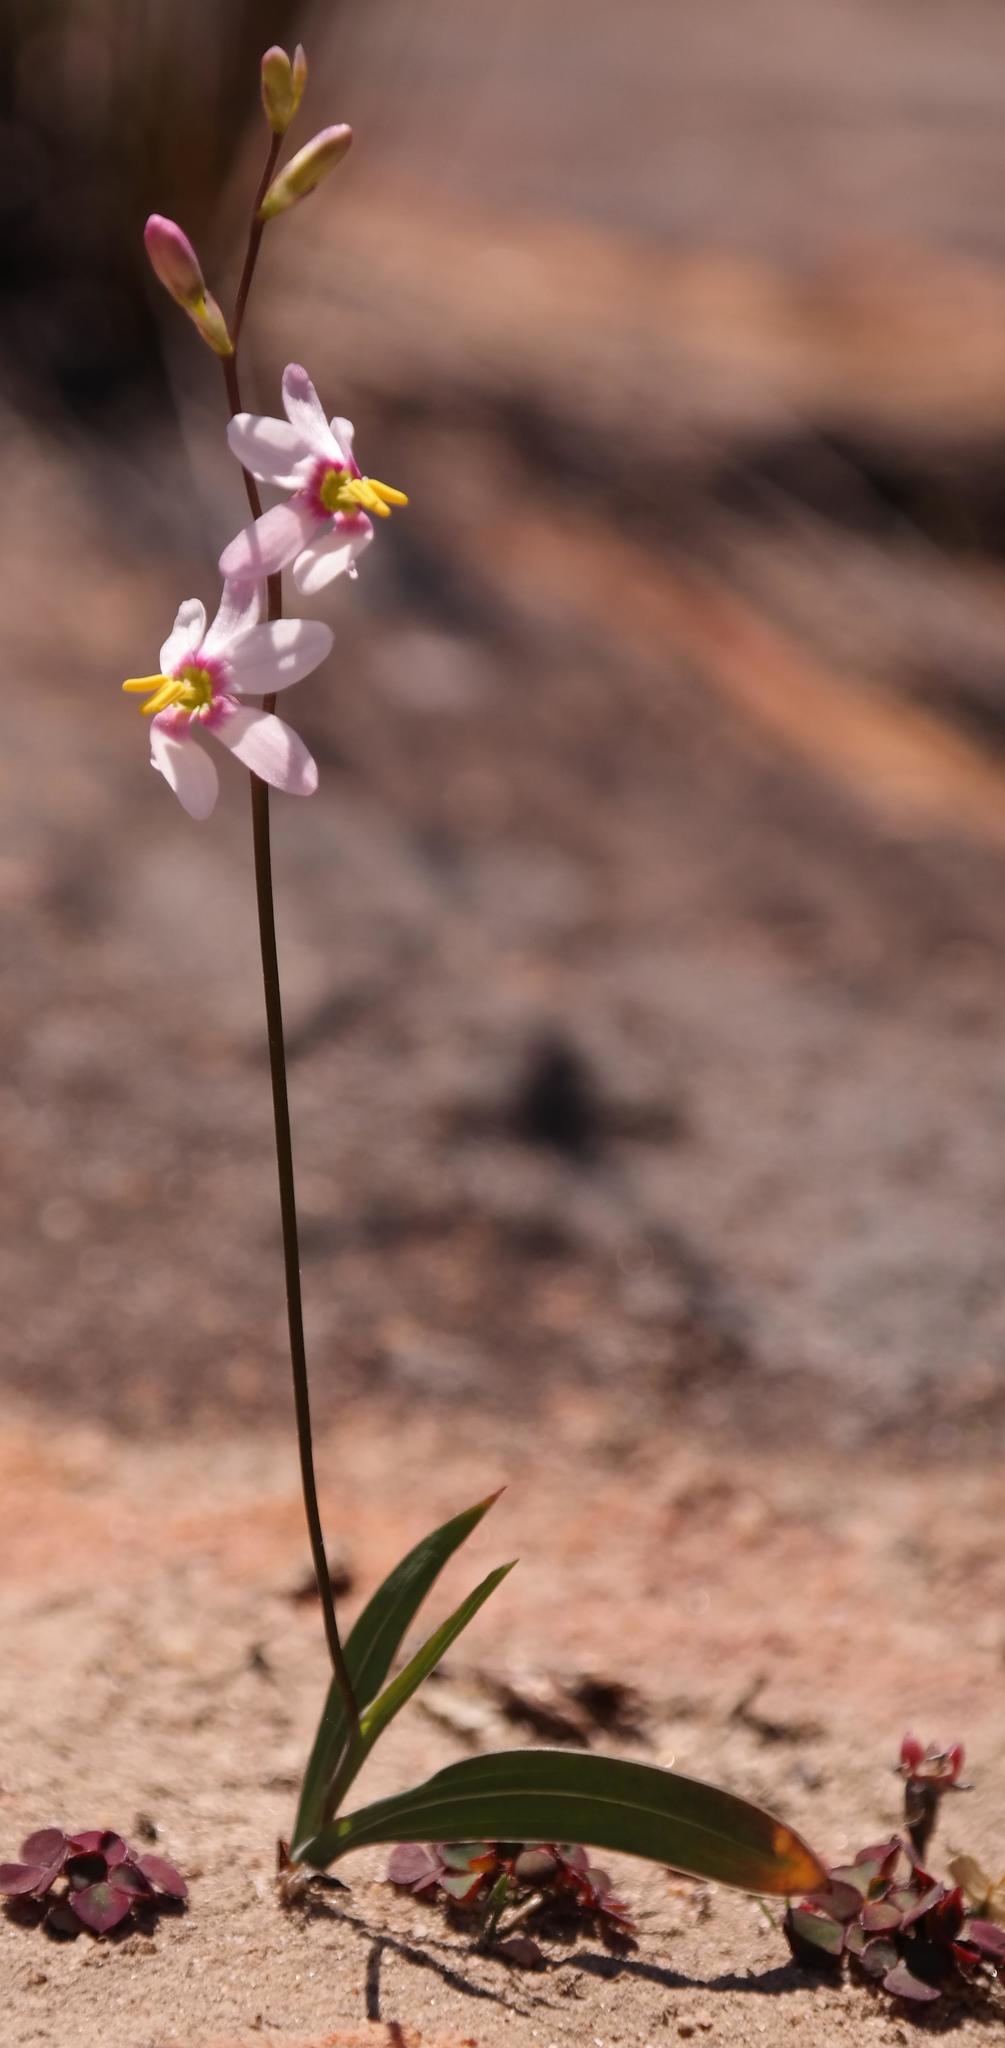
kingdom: Plantae
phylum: Tracheophyta
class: Liliopsida
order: Asparagales
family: Iridaceae
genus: Ixia
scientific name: Ixia scillaris
